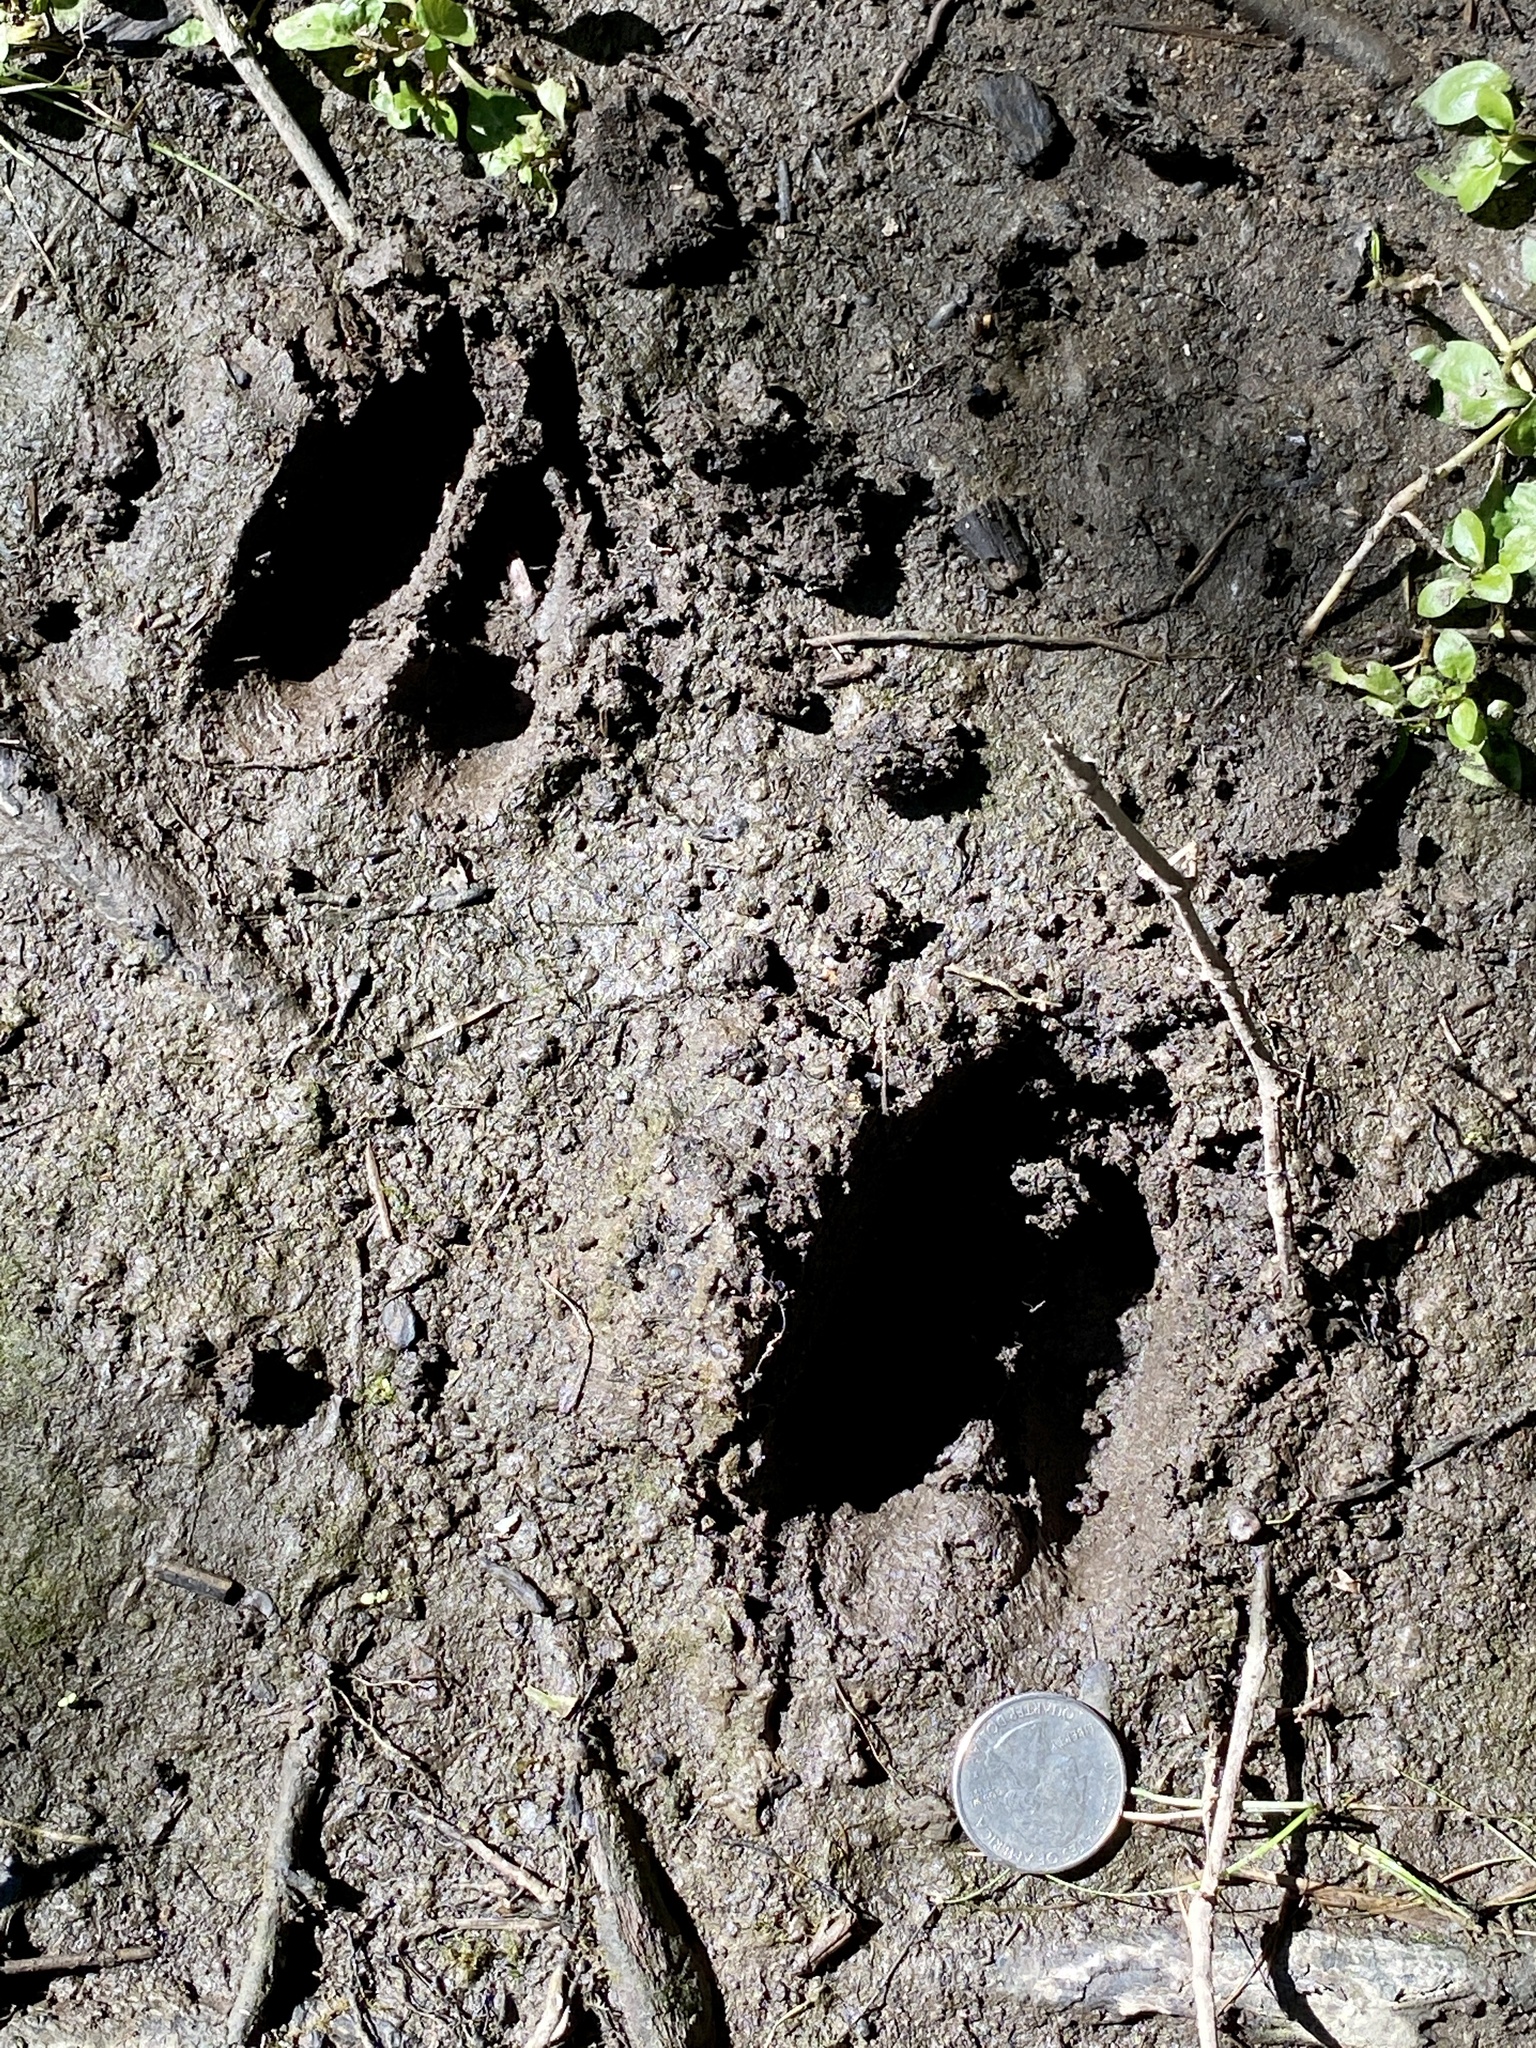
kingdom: Animalia
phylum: Chordata
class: Mammalia
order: Artiodactyla
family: Cervidae
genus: Odocoileus
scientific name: Odocoileus virginianus
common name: White-tailed deer
